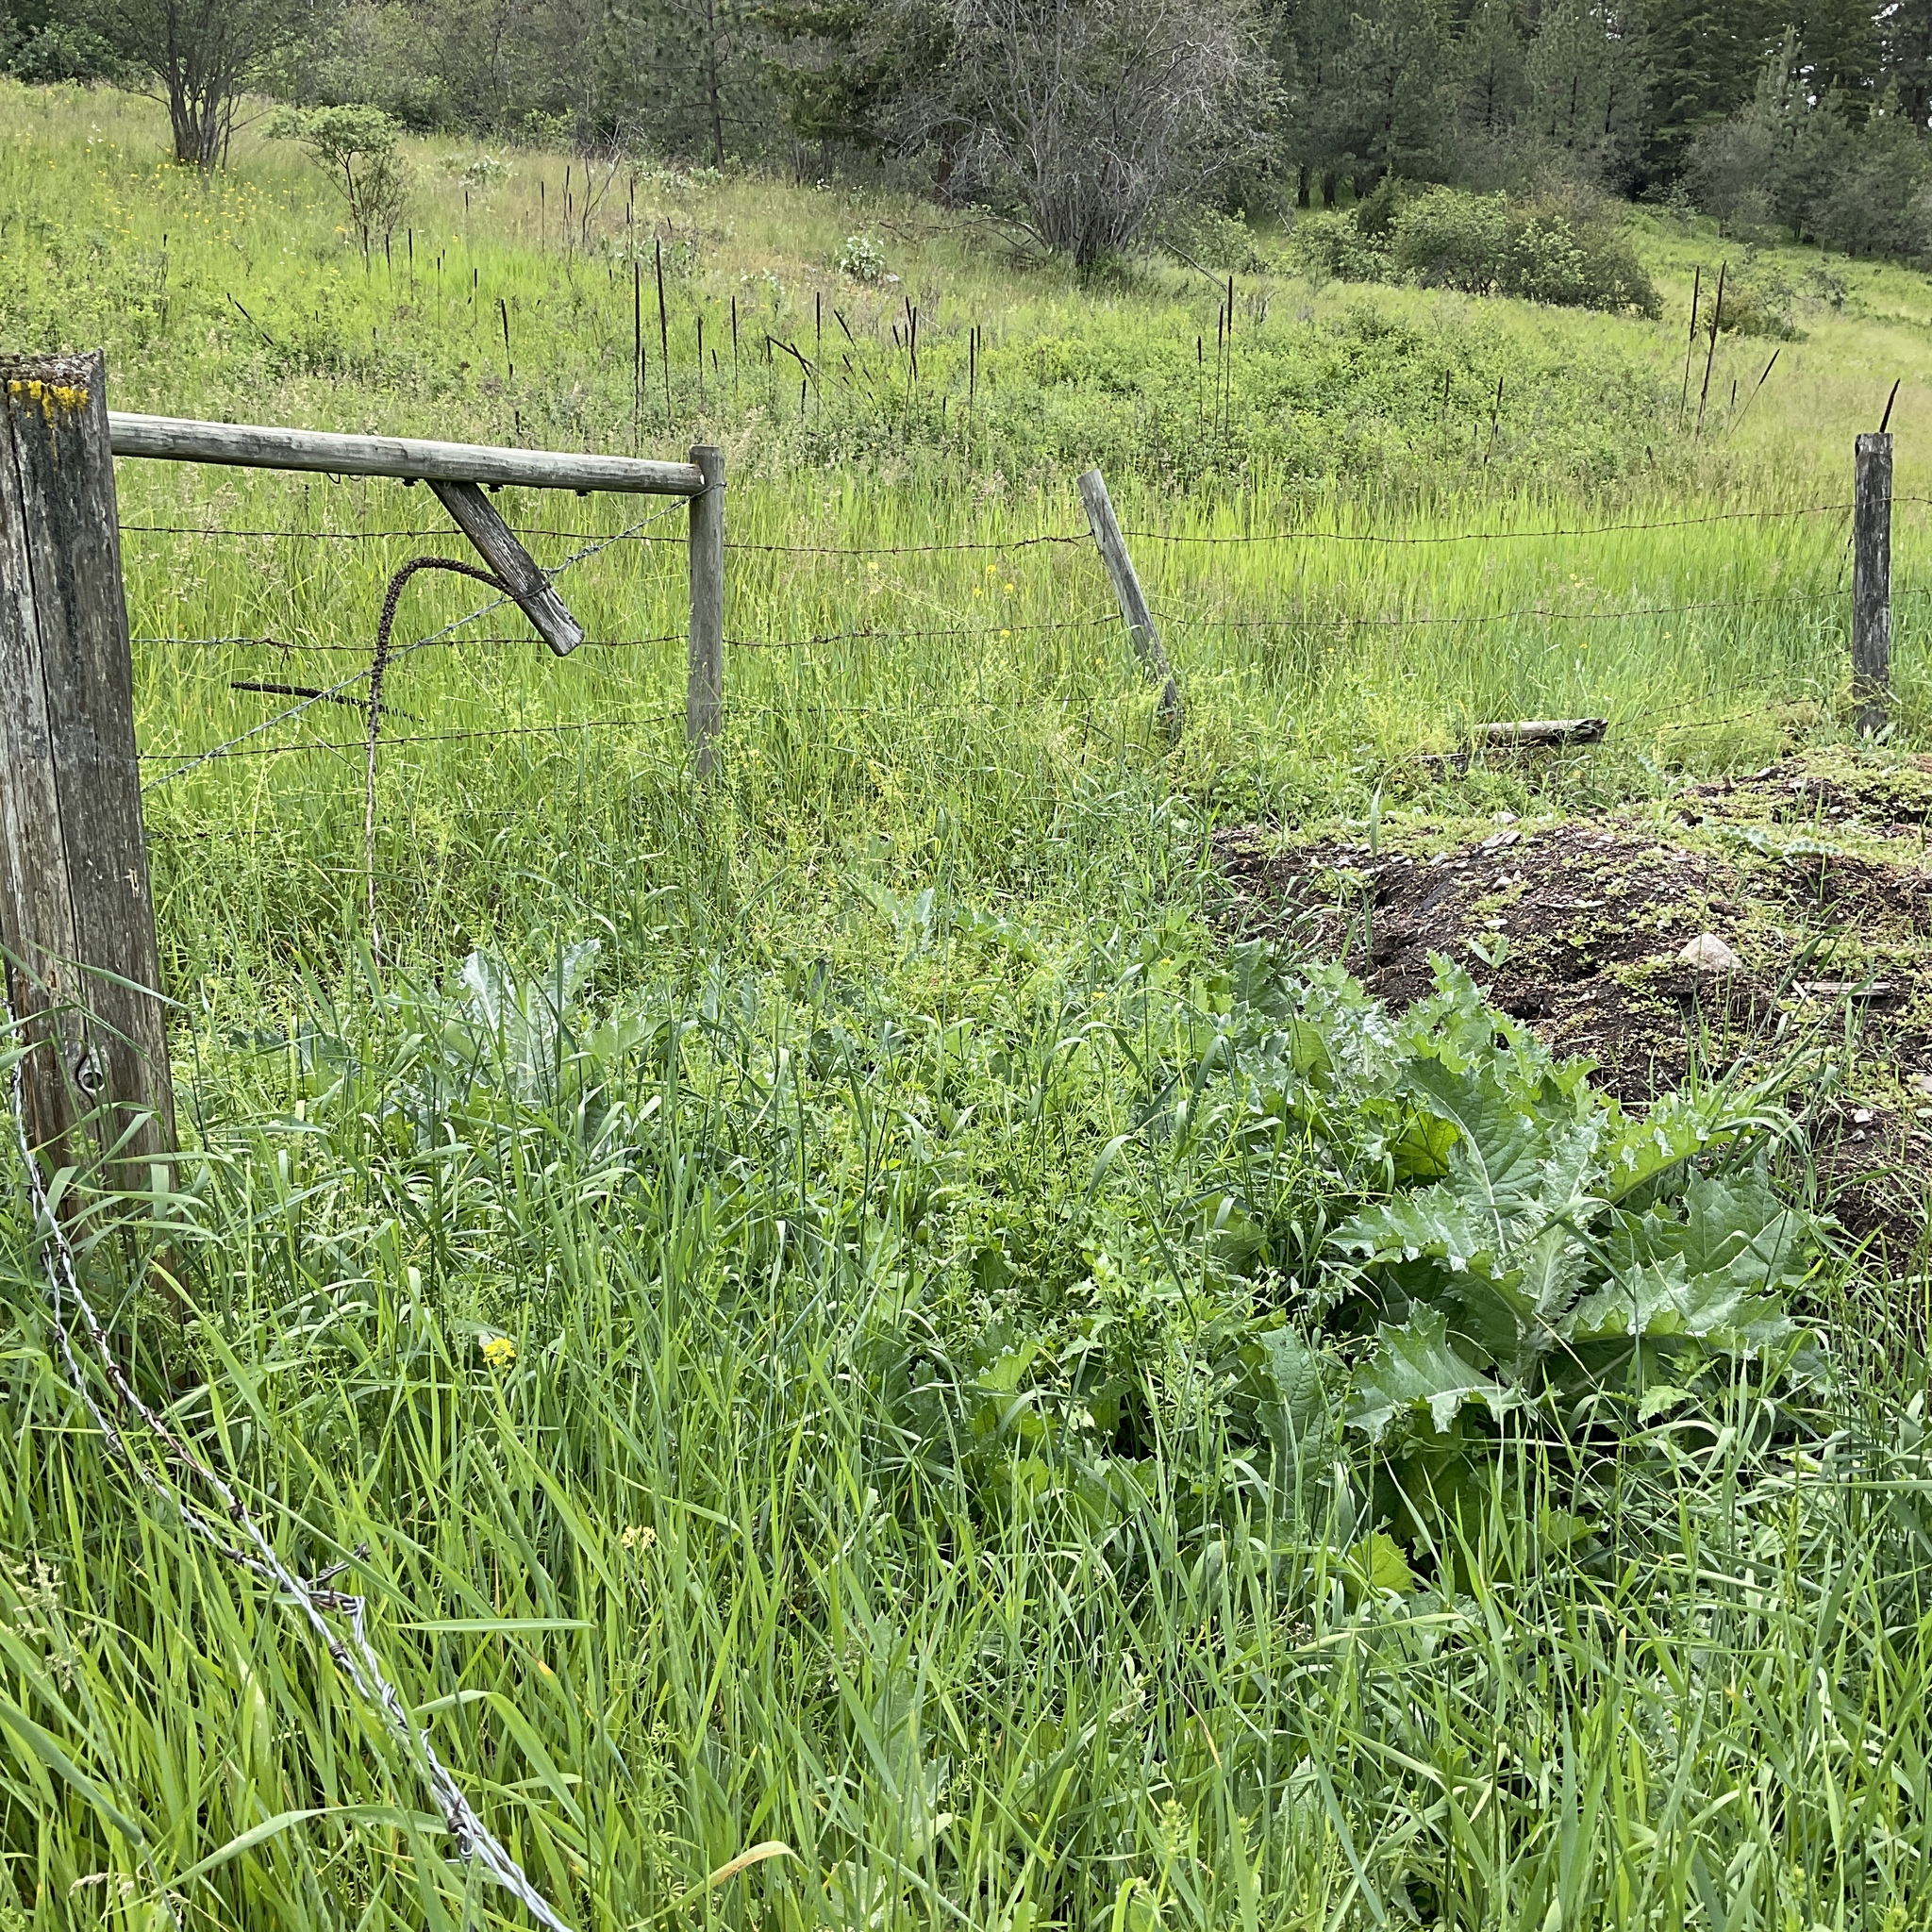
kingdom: Plantae
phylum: Tracheophyta
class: Magnoliopsida
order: Asterales
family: Asteraceae
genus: Onopordum
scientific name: Onopordum acanthium
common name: Scotch thistle
